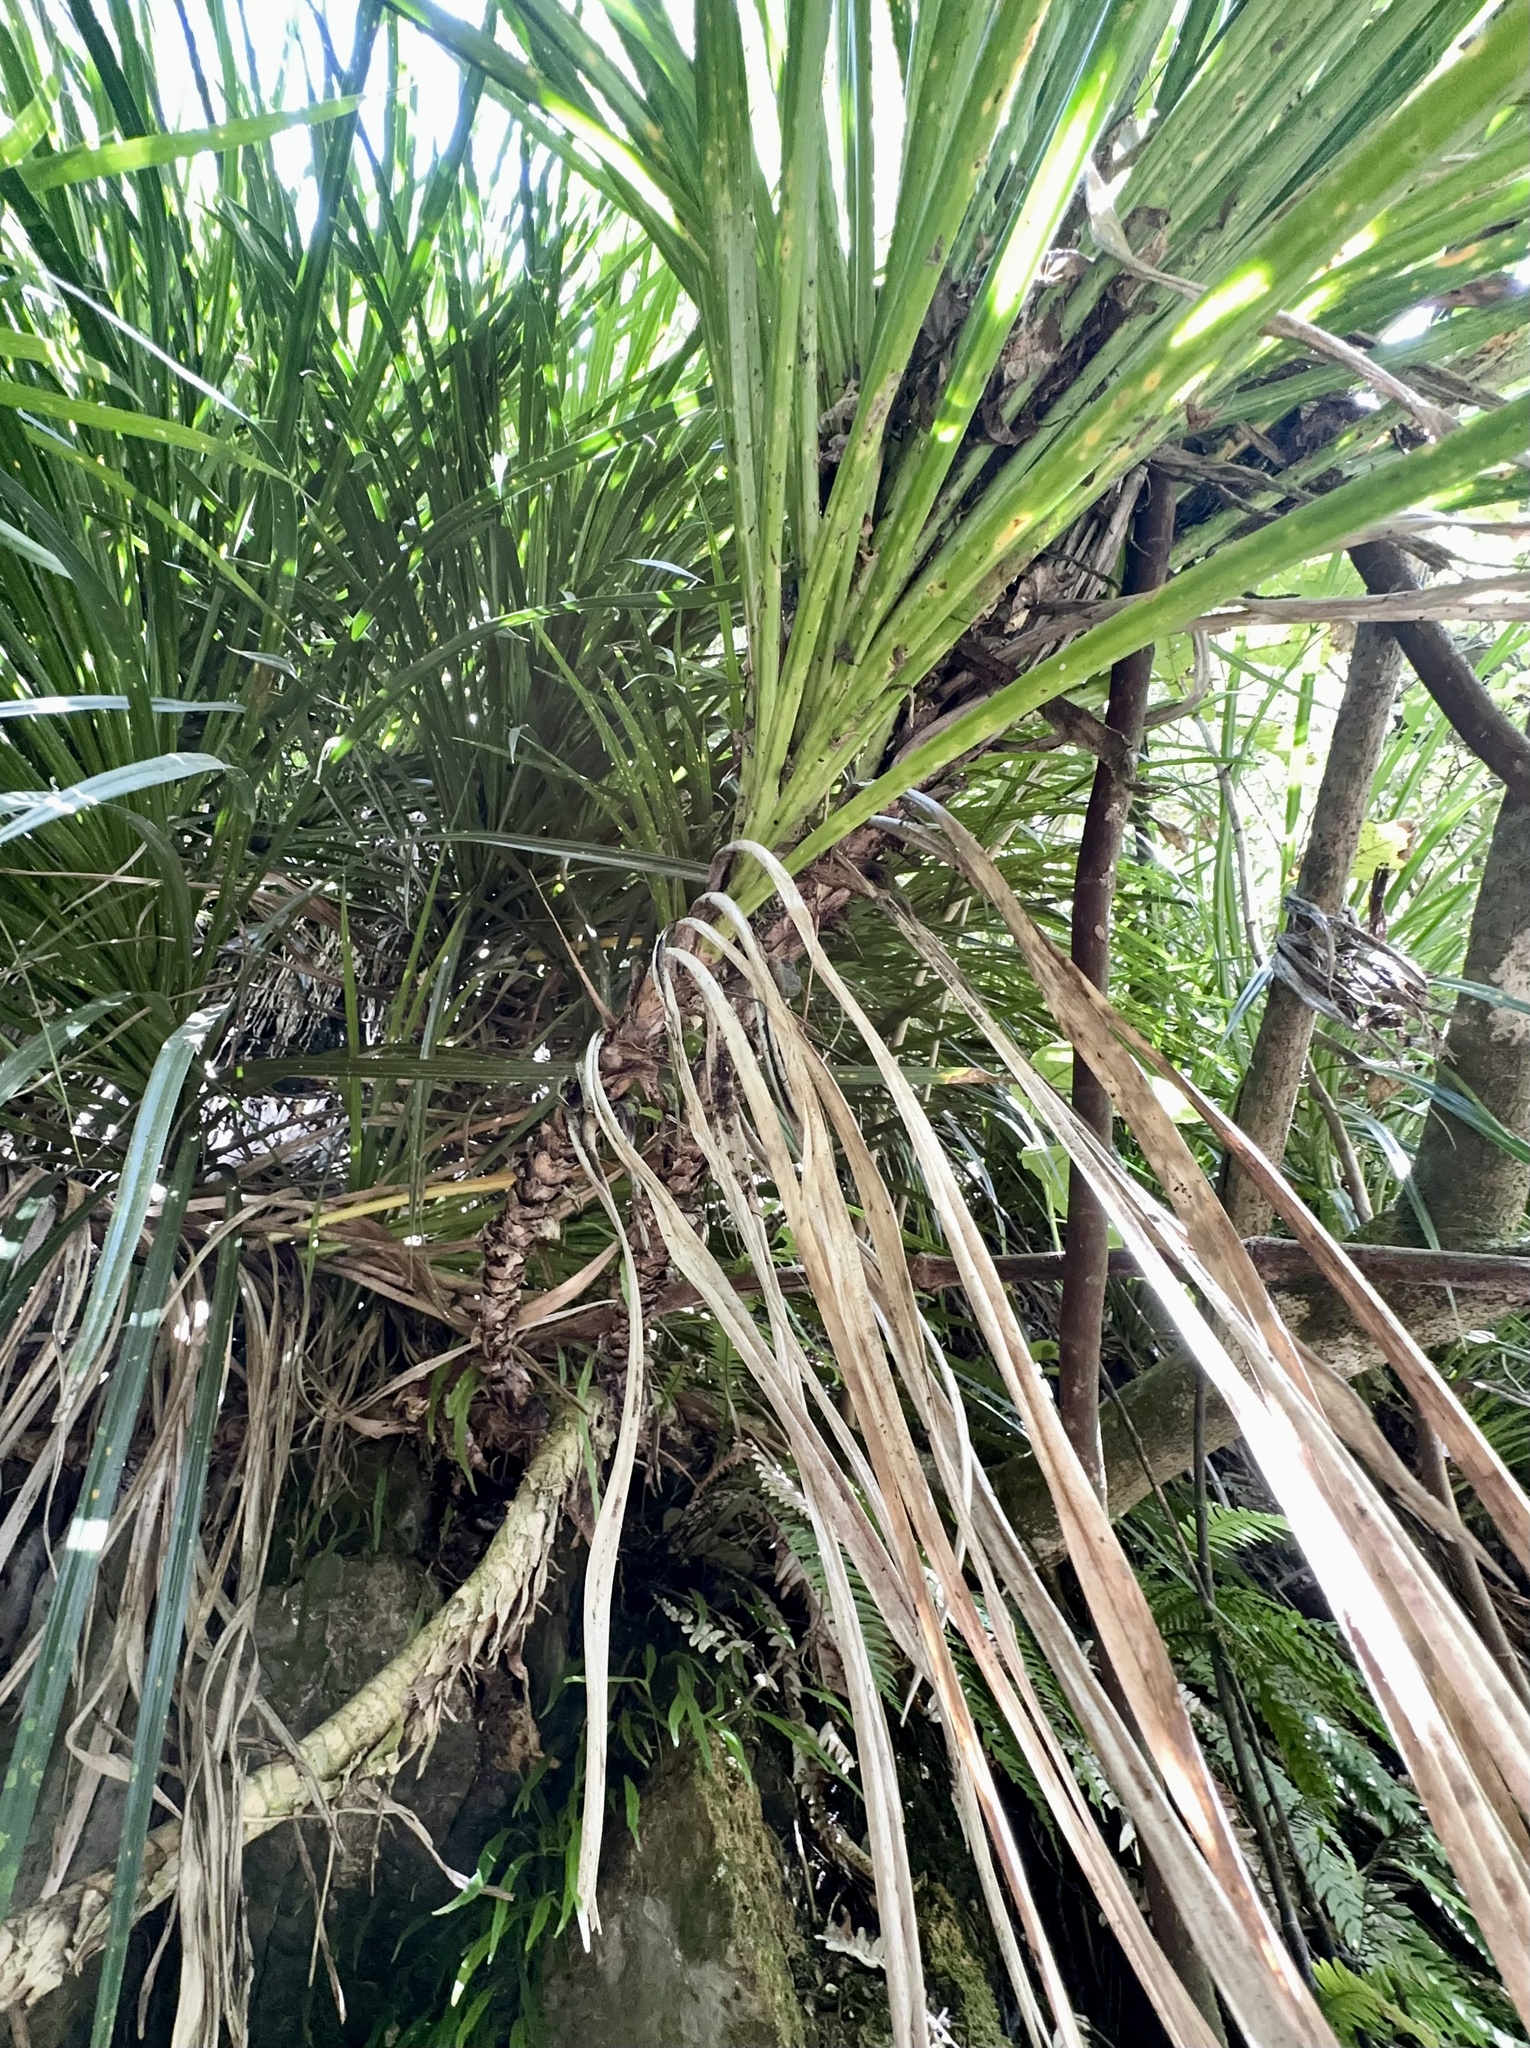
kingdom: Plantae
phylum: Tracheophyta
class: Liliopsida
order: Pandanales
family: Pandanaceae
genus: Freycinetia
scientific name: Freycinetia banksii
